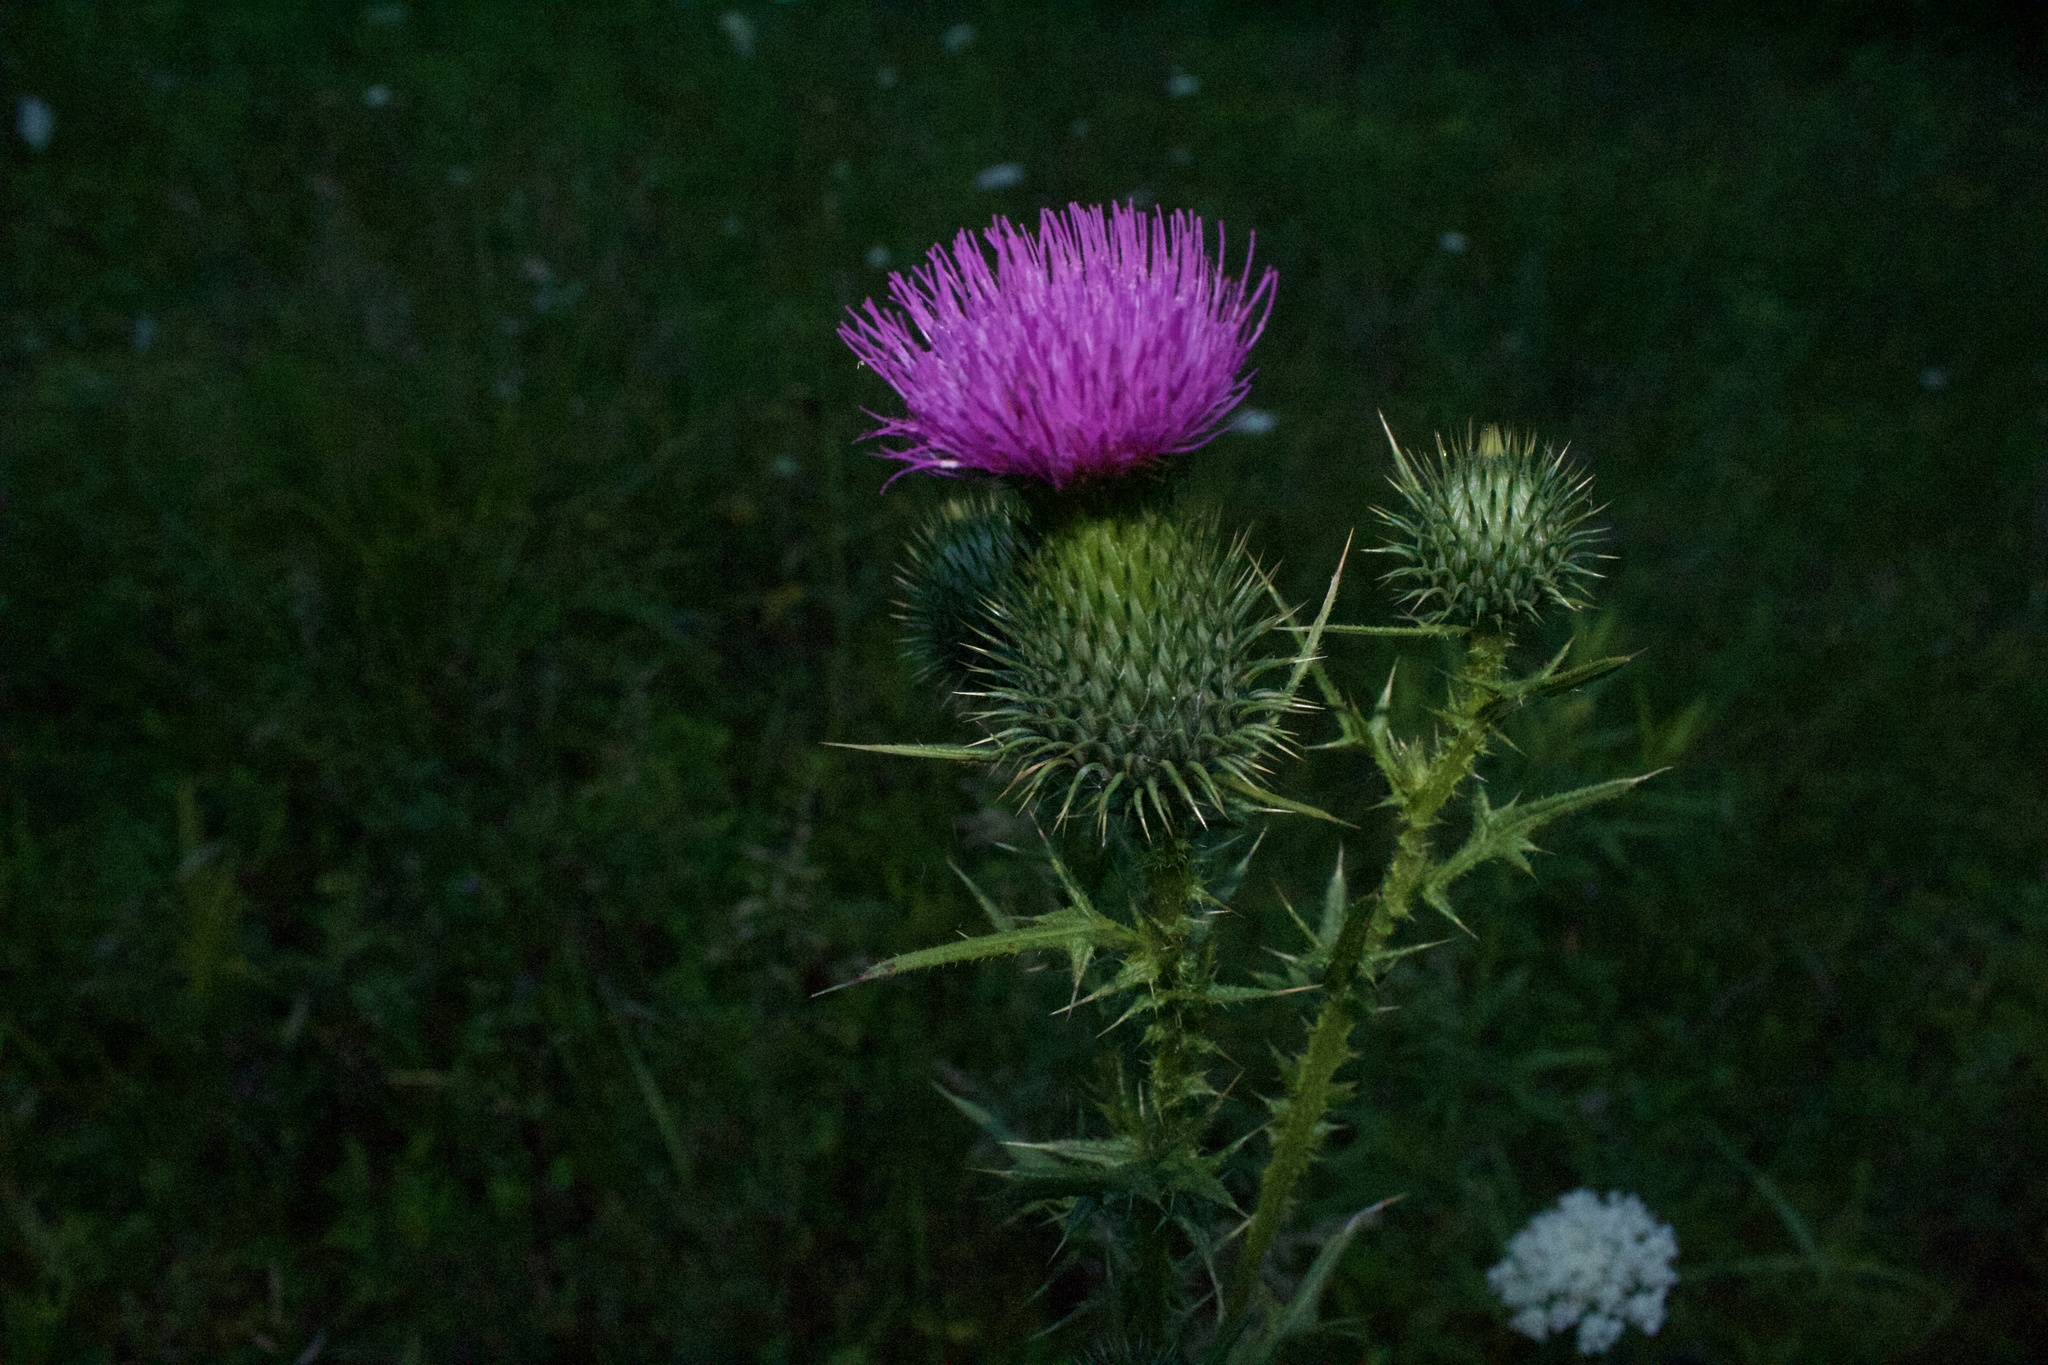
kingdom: Plantae
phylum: Tracheophyta
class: Magnoliopsida
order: Asterales
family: Asteraceae
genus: Cirsium
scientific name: Cirsium vulgare
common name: Bull thistle
